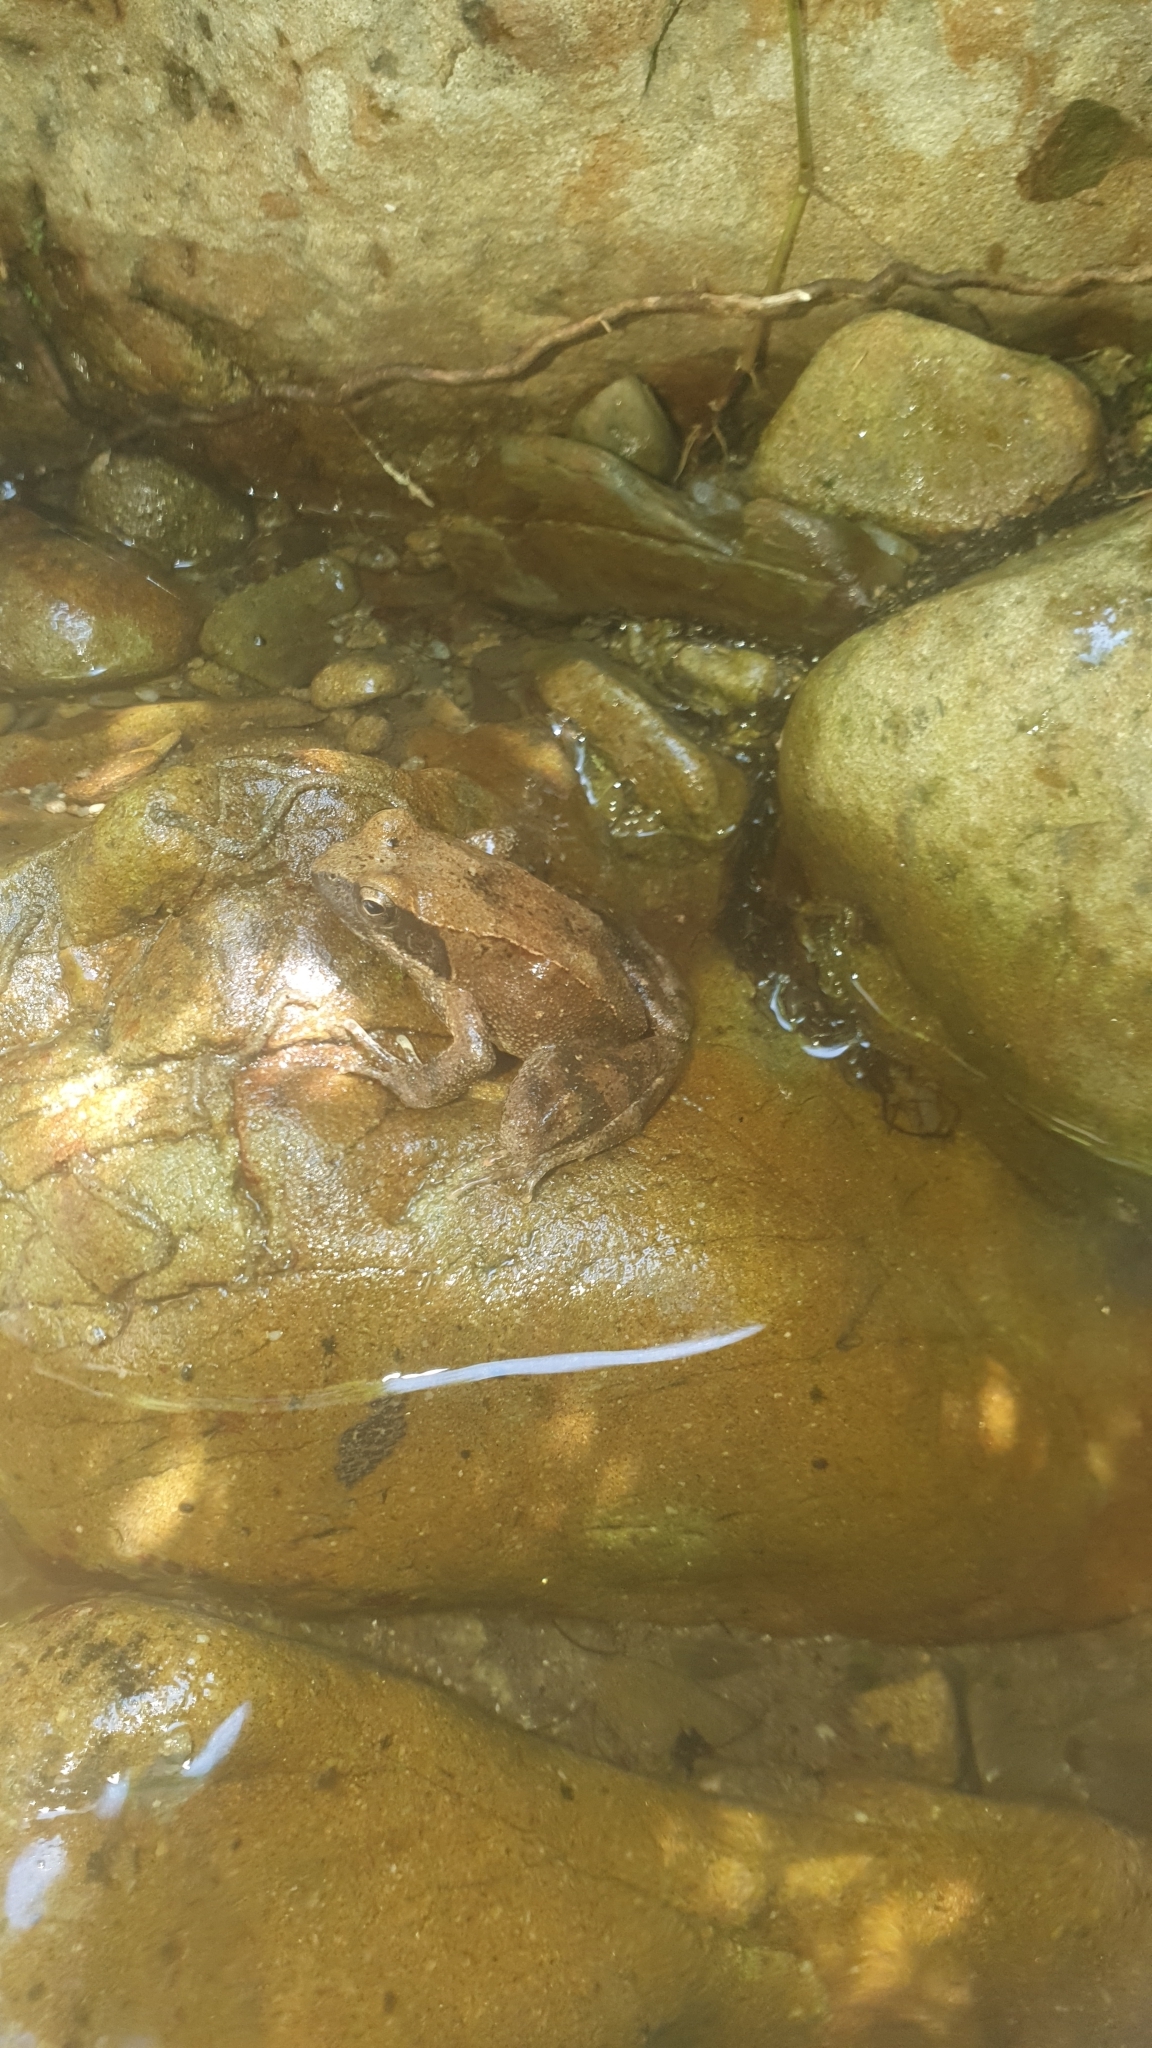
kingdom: Animalia
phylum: Chordata
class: Amphibia
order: Anura
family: Ranidae
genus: Rana
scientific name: Rana italica
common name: Italian stream frog
